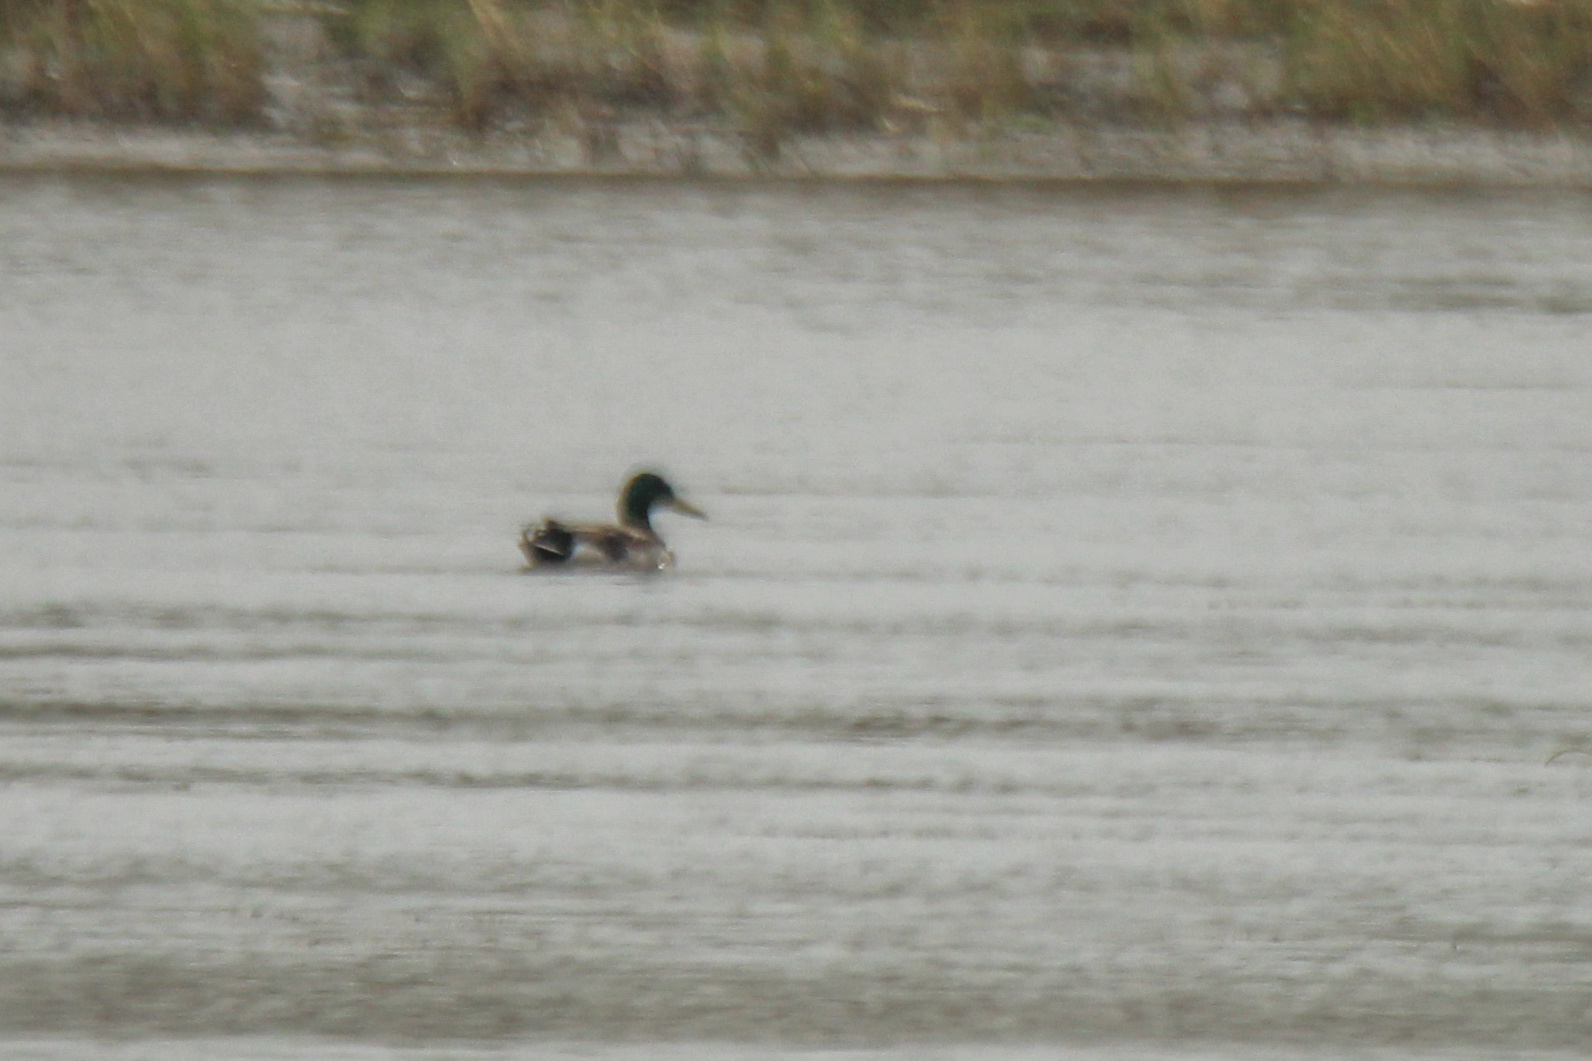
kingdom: Animalia
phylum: Chordata
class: Aves
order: Anseriformes
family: Anatidae
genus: Anas
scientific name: Anas platyrhynchos
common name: Mallard
